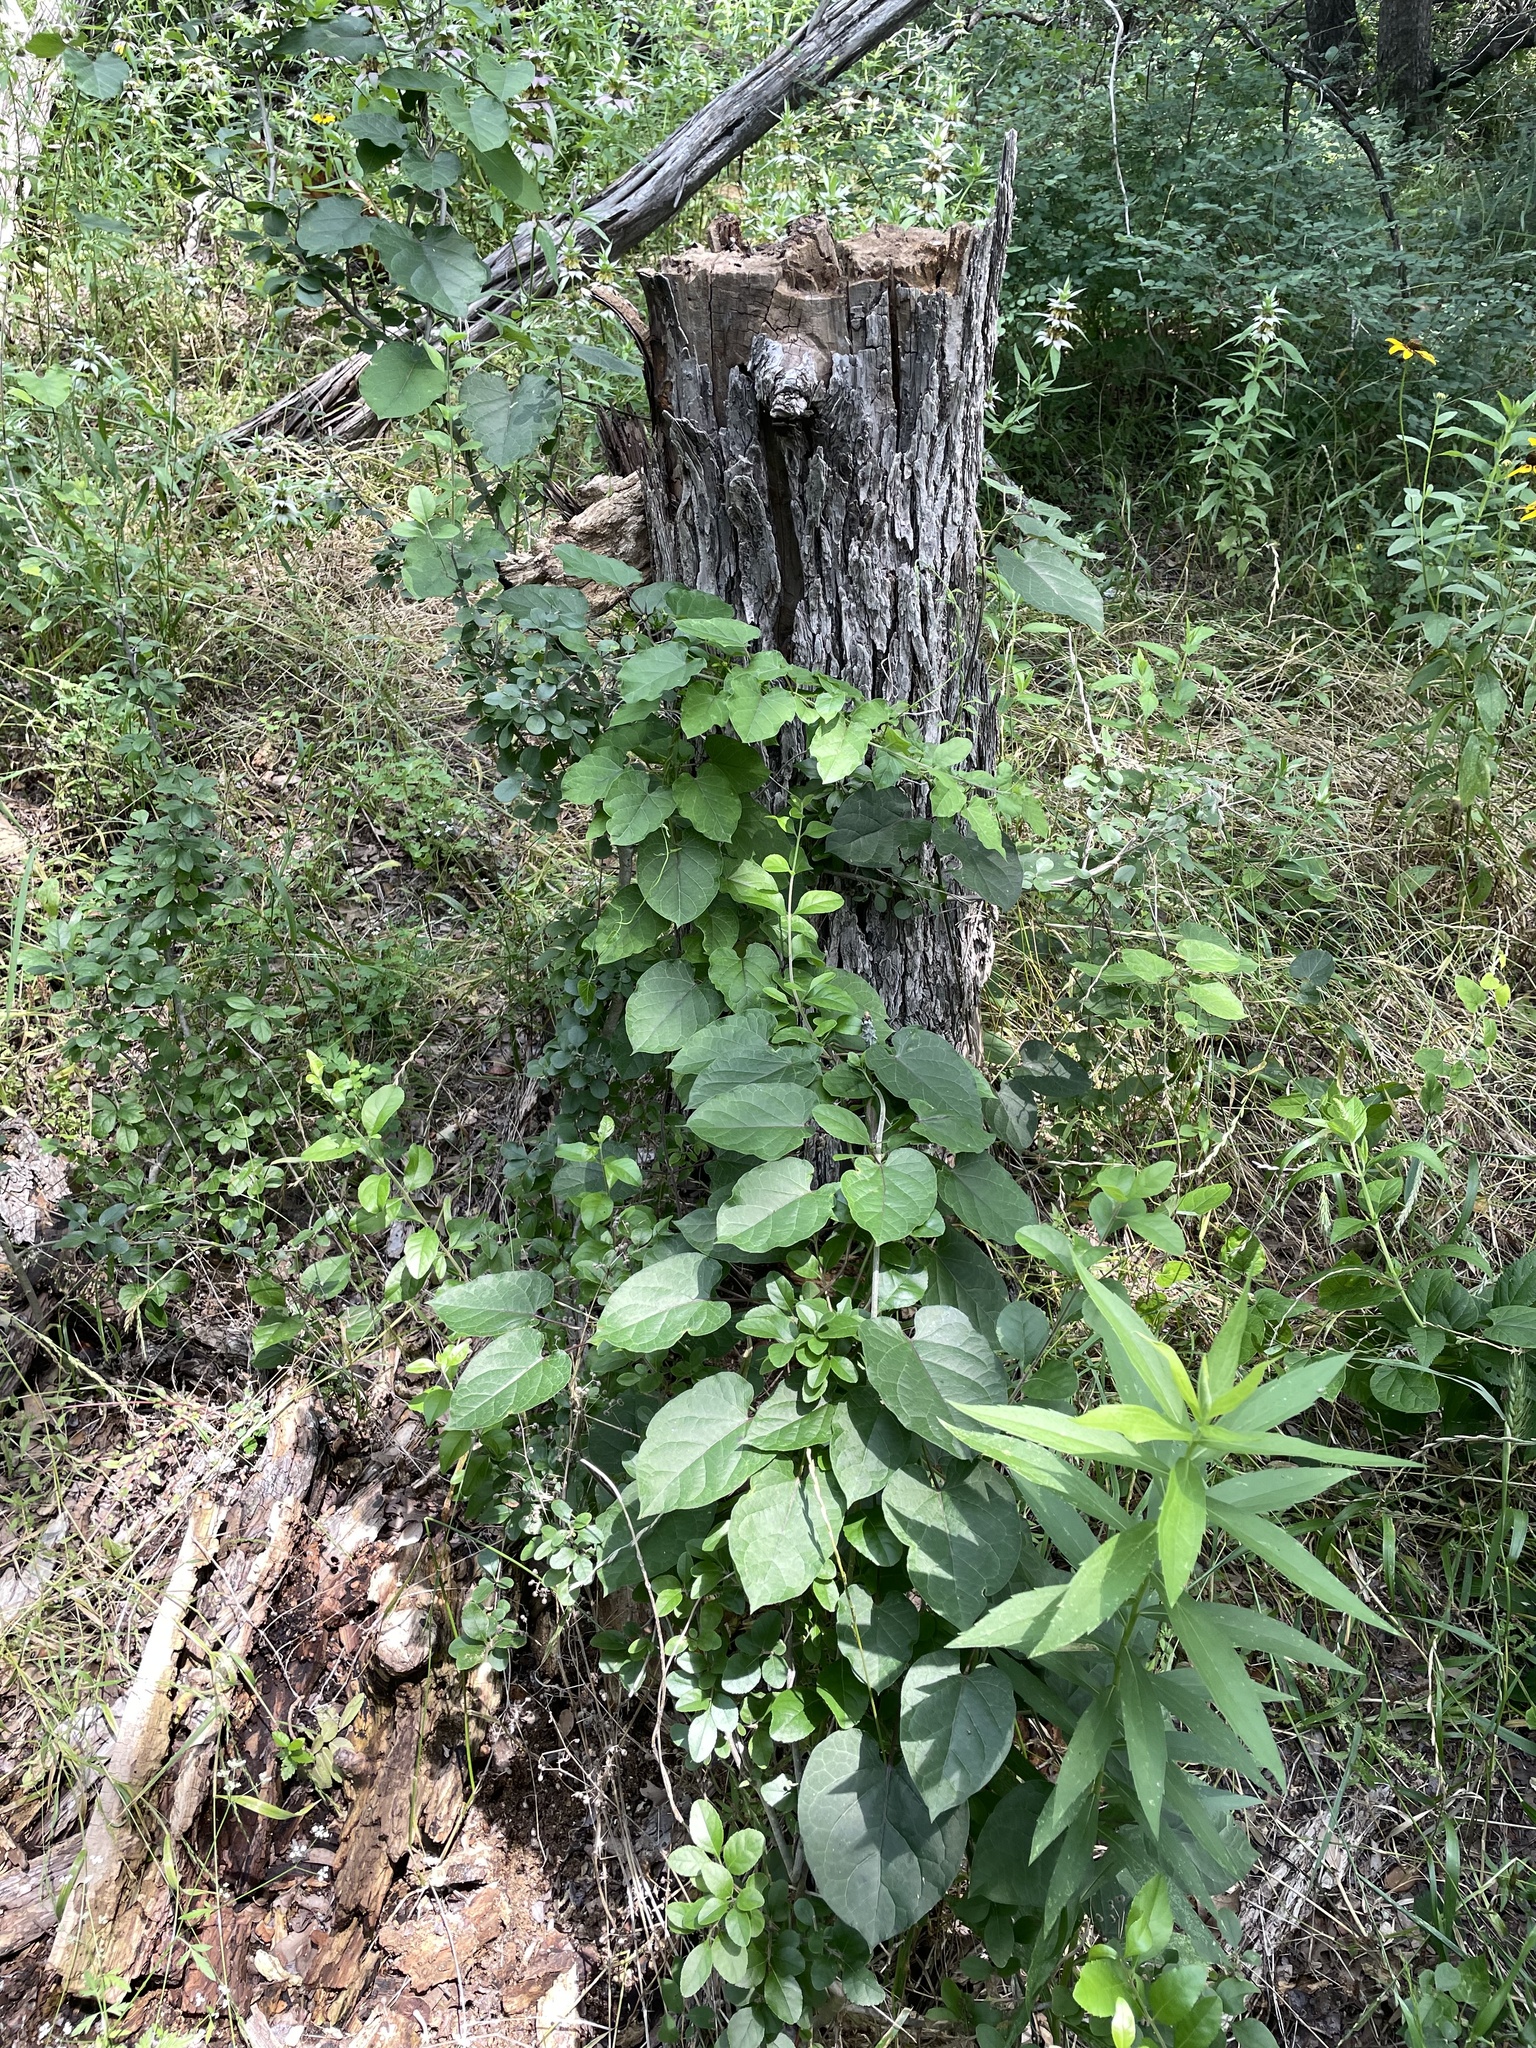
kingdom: Plantae
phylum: Tracheophyta
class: Magnoliopsida
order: Gentianales
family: Apocynaceae
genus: Gonolobus
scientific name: Gonolobus suberosus
